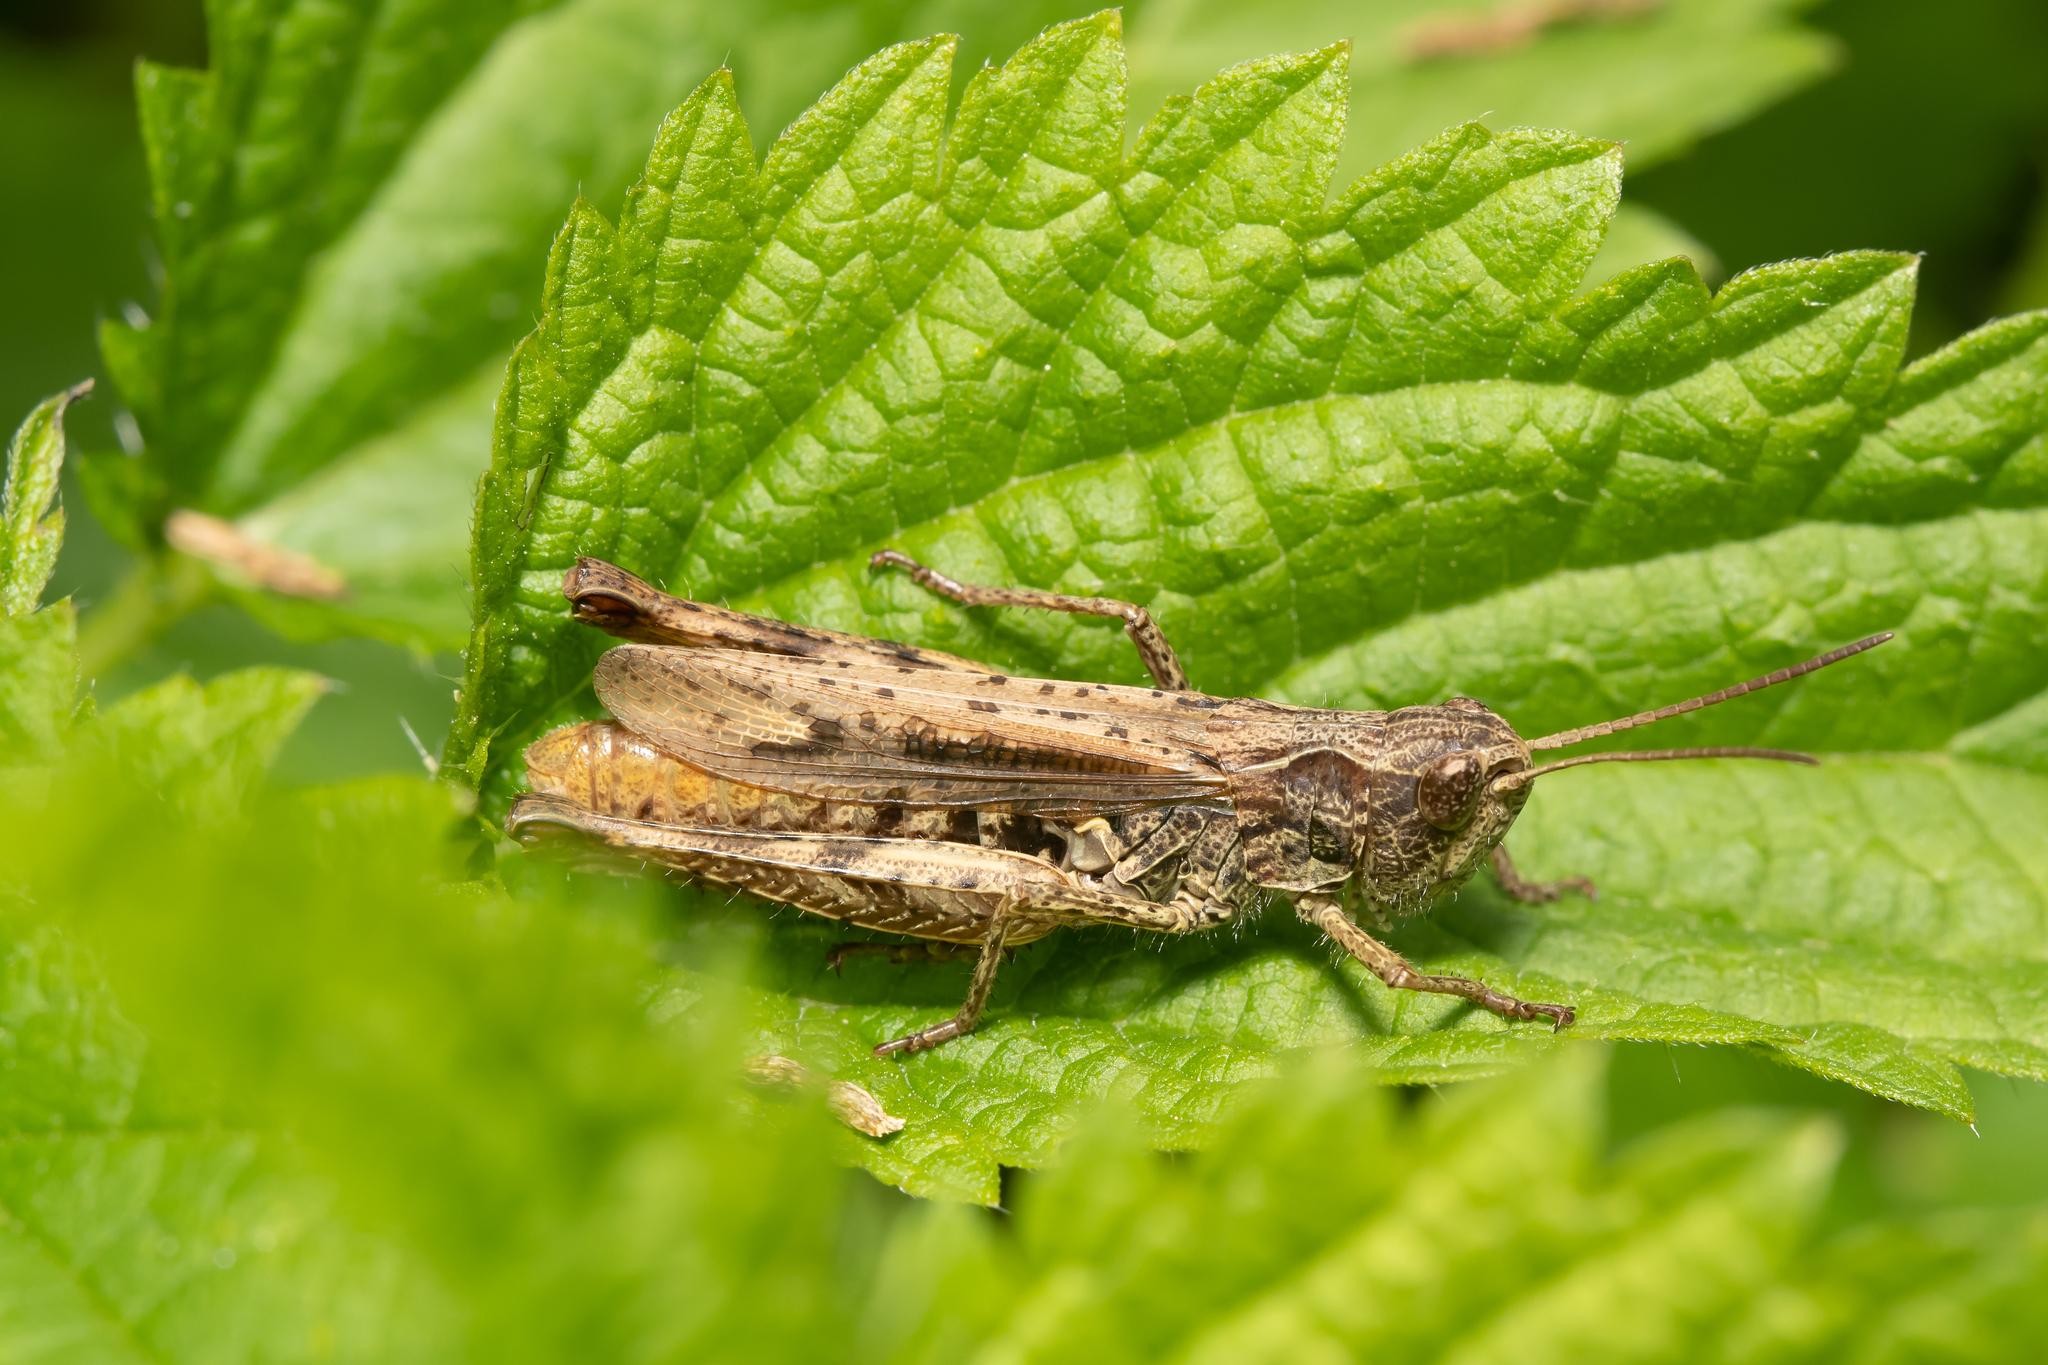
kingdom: Animalia
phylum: Arthropoda
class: Insecta
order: Orthoptera
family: Acrididae
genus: Chorthippus
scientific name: Chorthippus apricarius
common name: Upland field grasshopper
